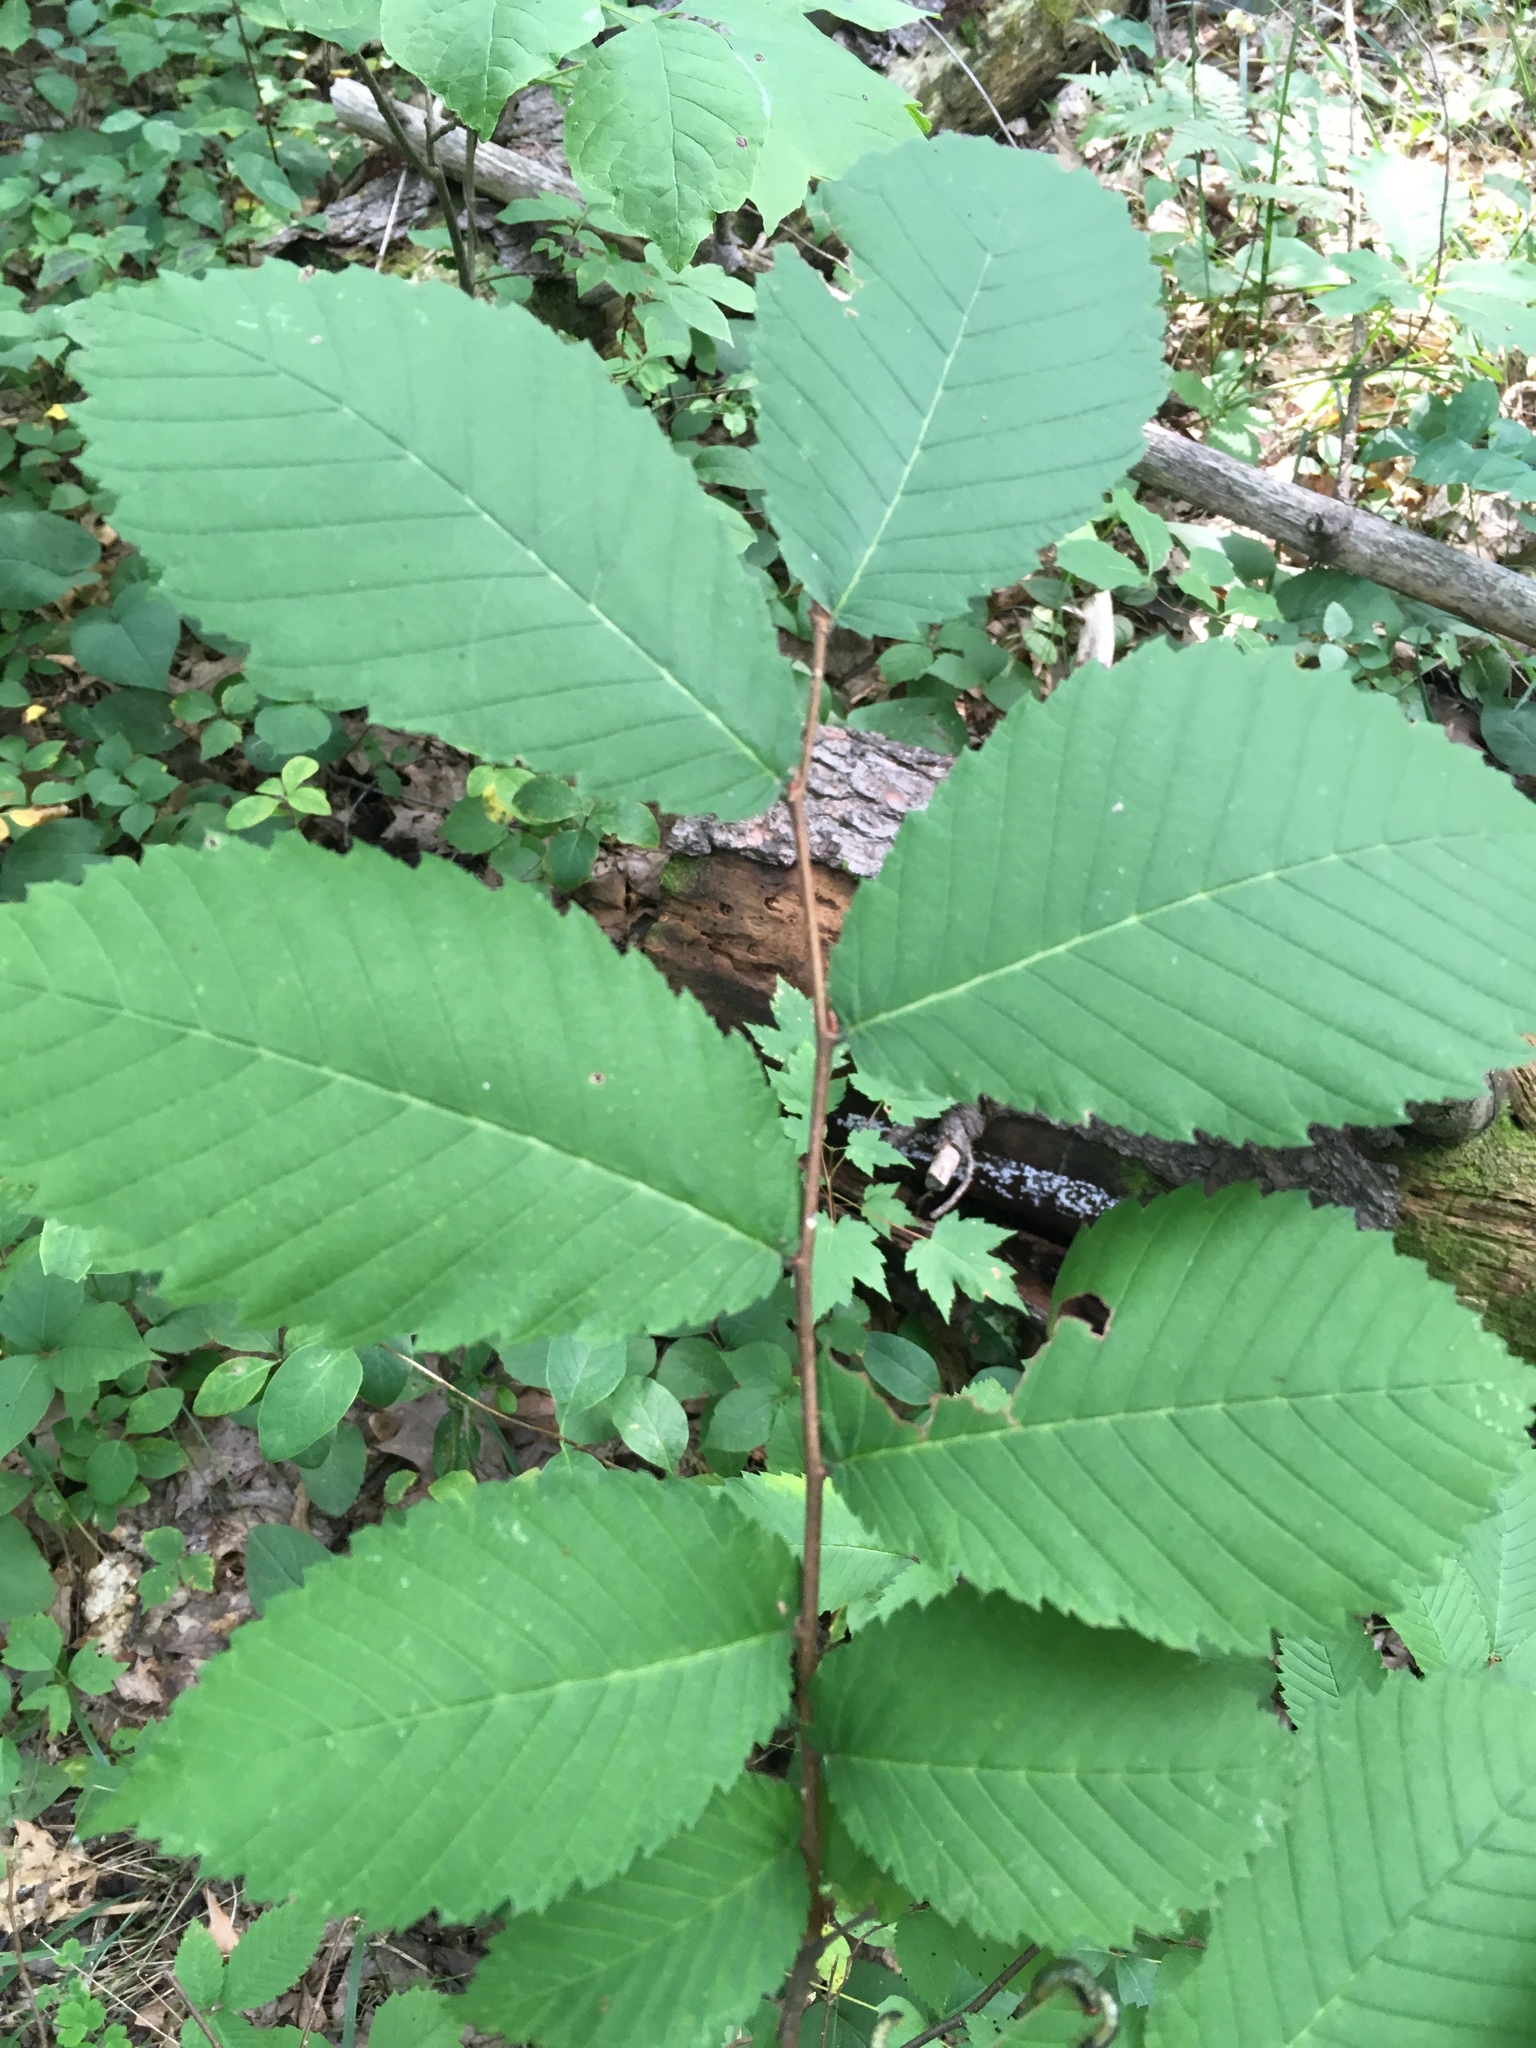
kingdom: Plantae
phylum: Tracheophyta
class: Magnoliopsida
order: Rosales
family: Ulmaceae
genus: Ulmus
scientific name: Ulmus americana
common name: American elm
